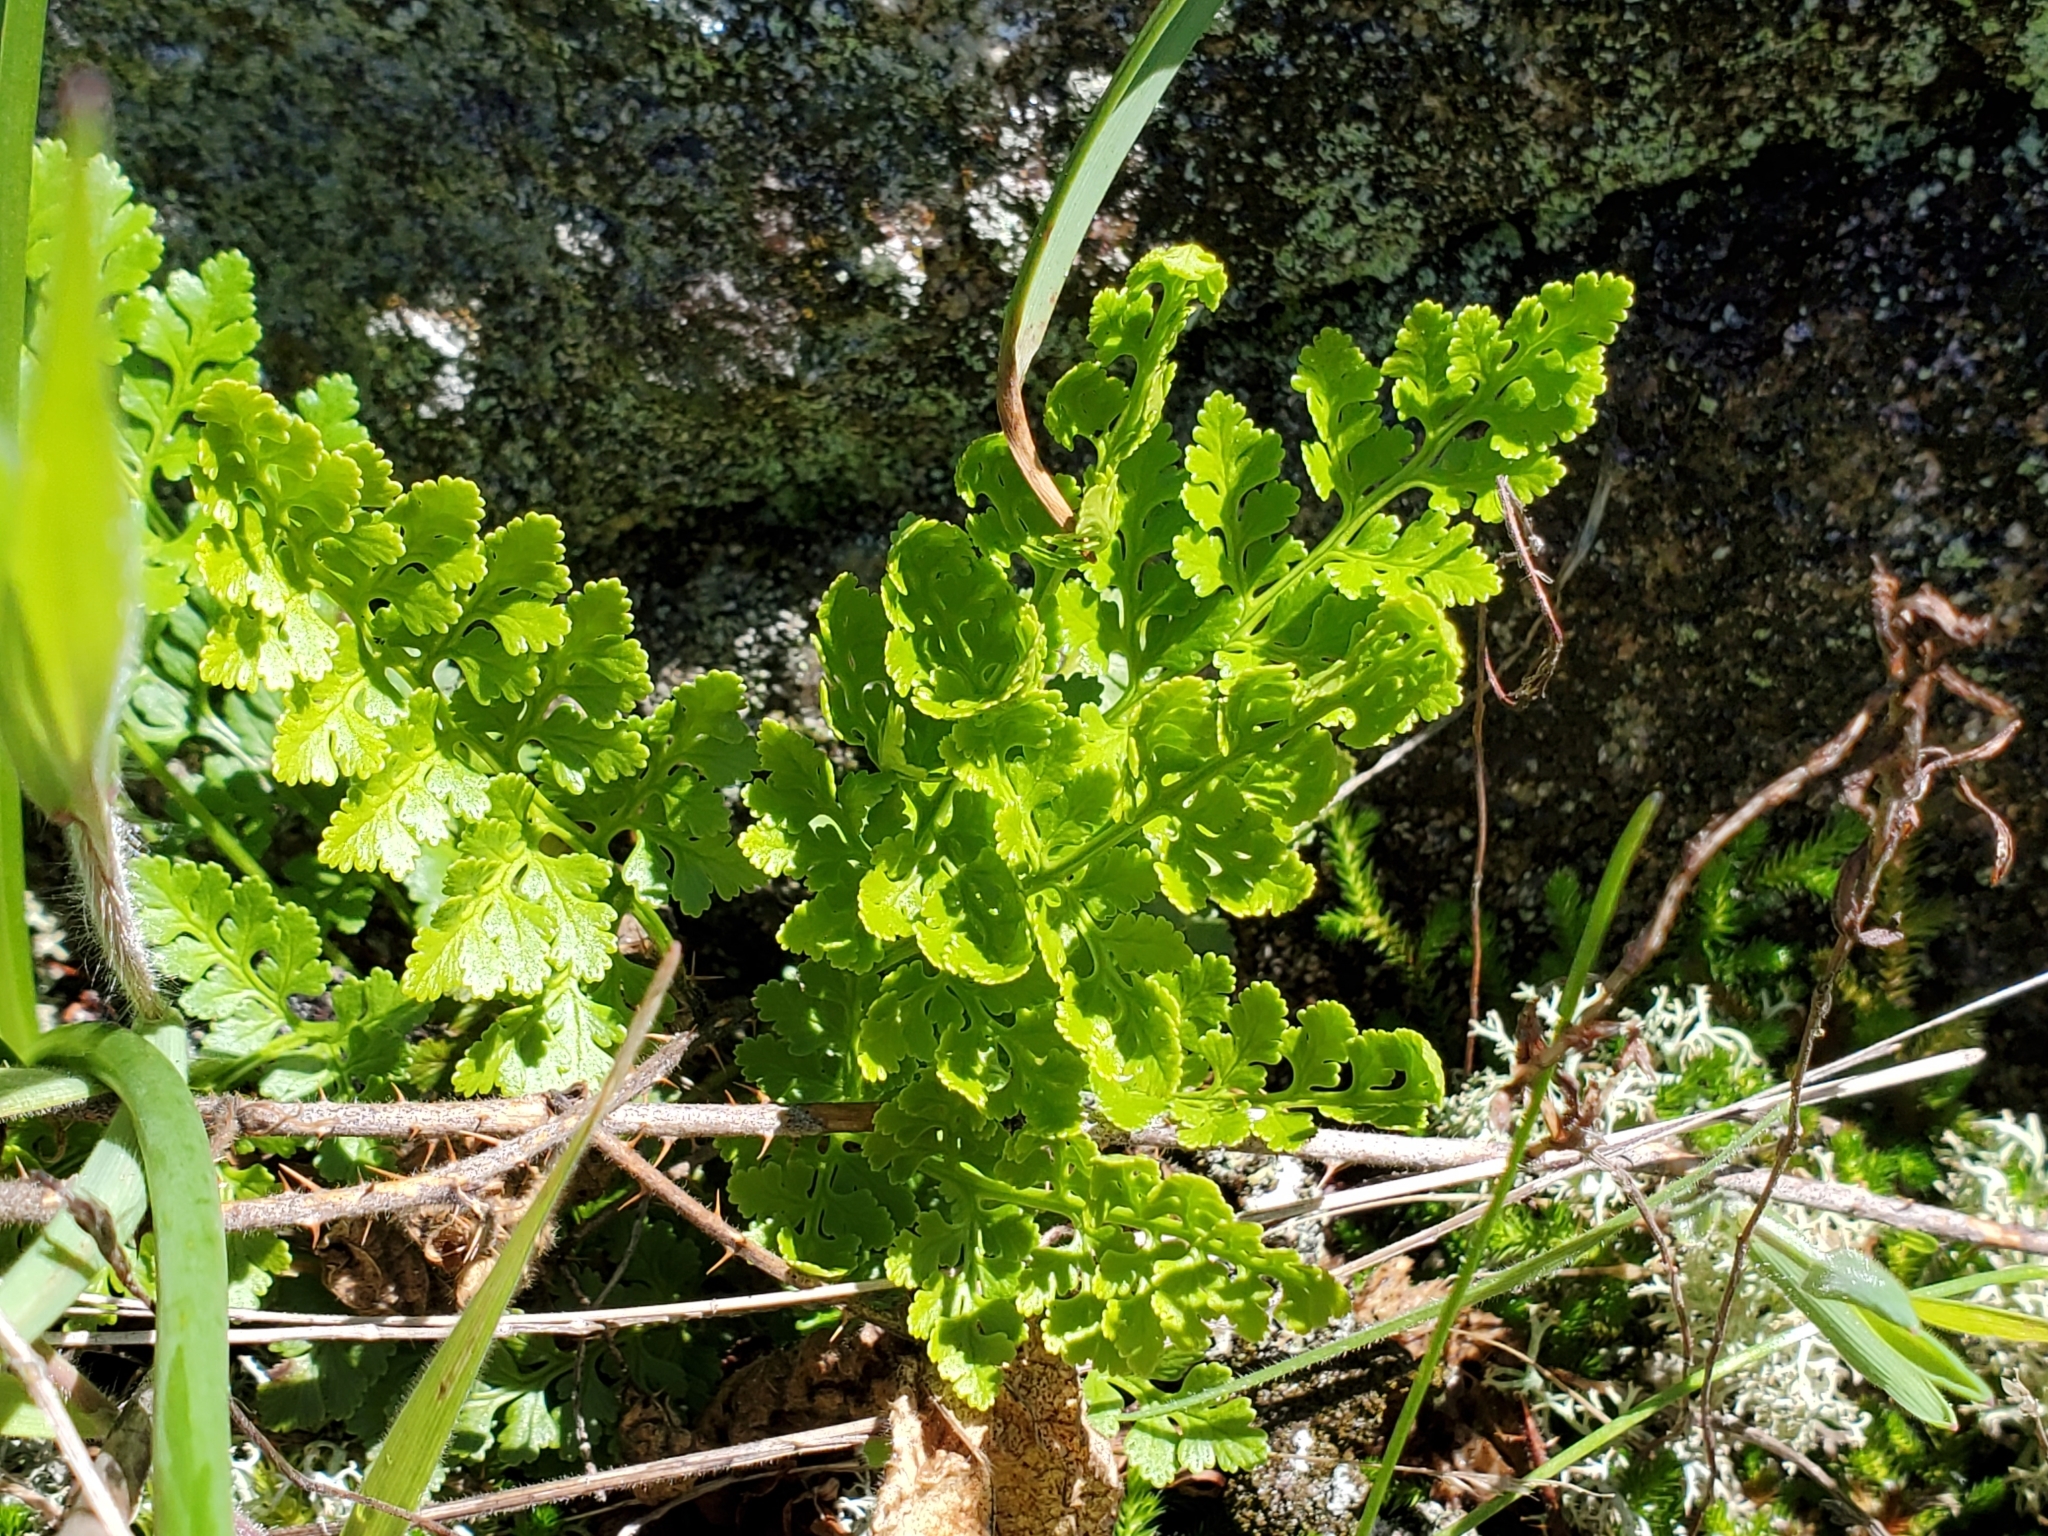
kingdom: Plantae
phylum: Tracheophyta
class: Polypodiopsida
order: Polypodiales
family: Pteridaceae
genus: Cryptogramma
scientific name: Cryptogramma acrostichoides
